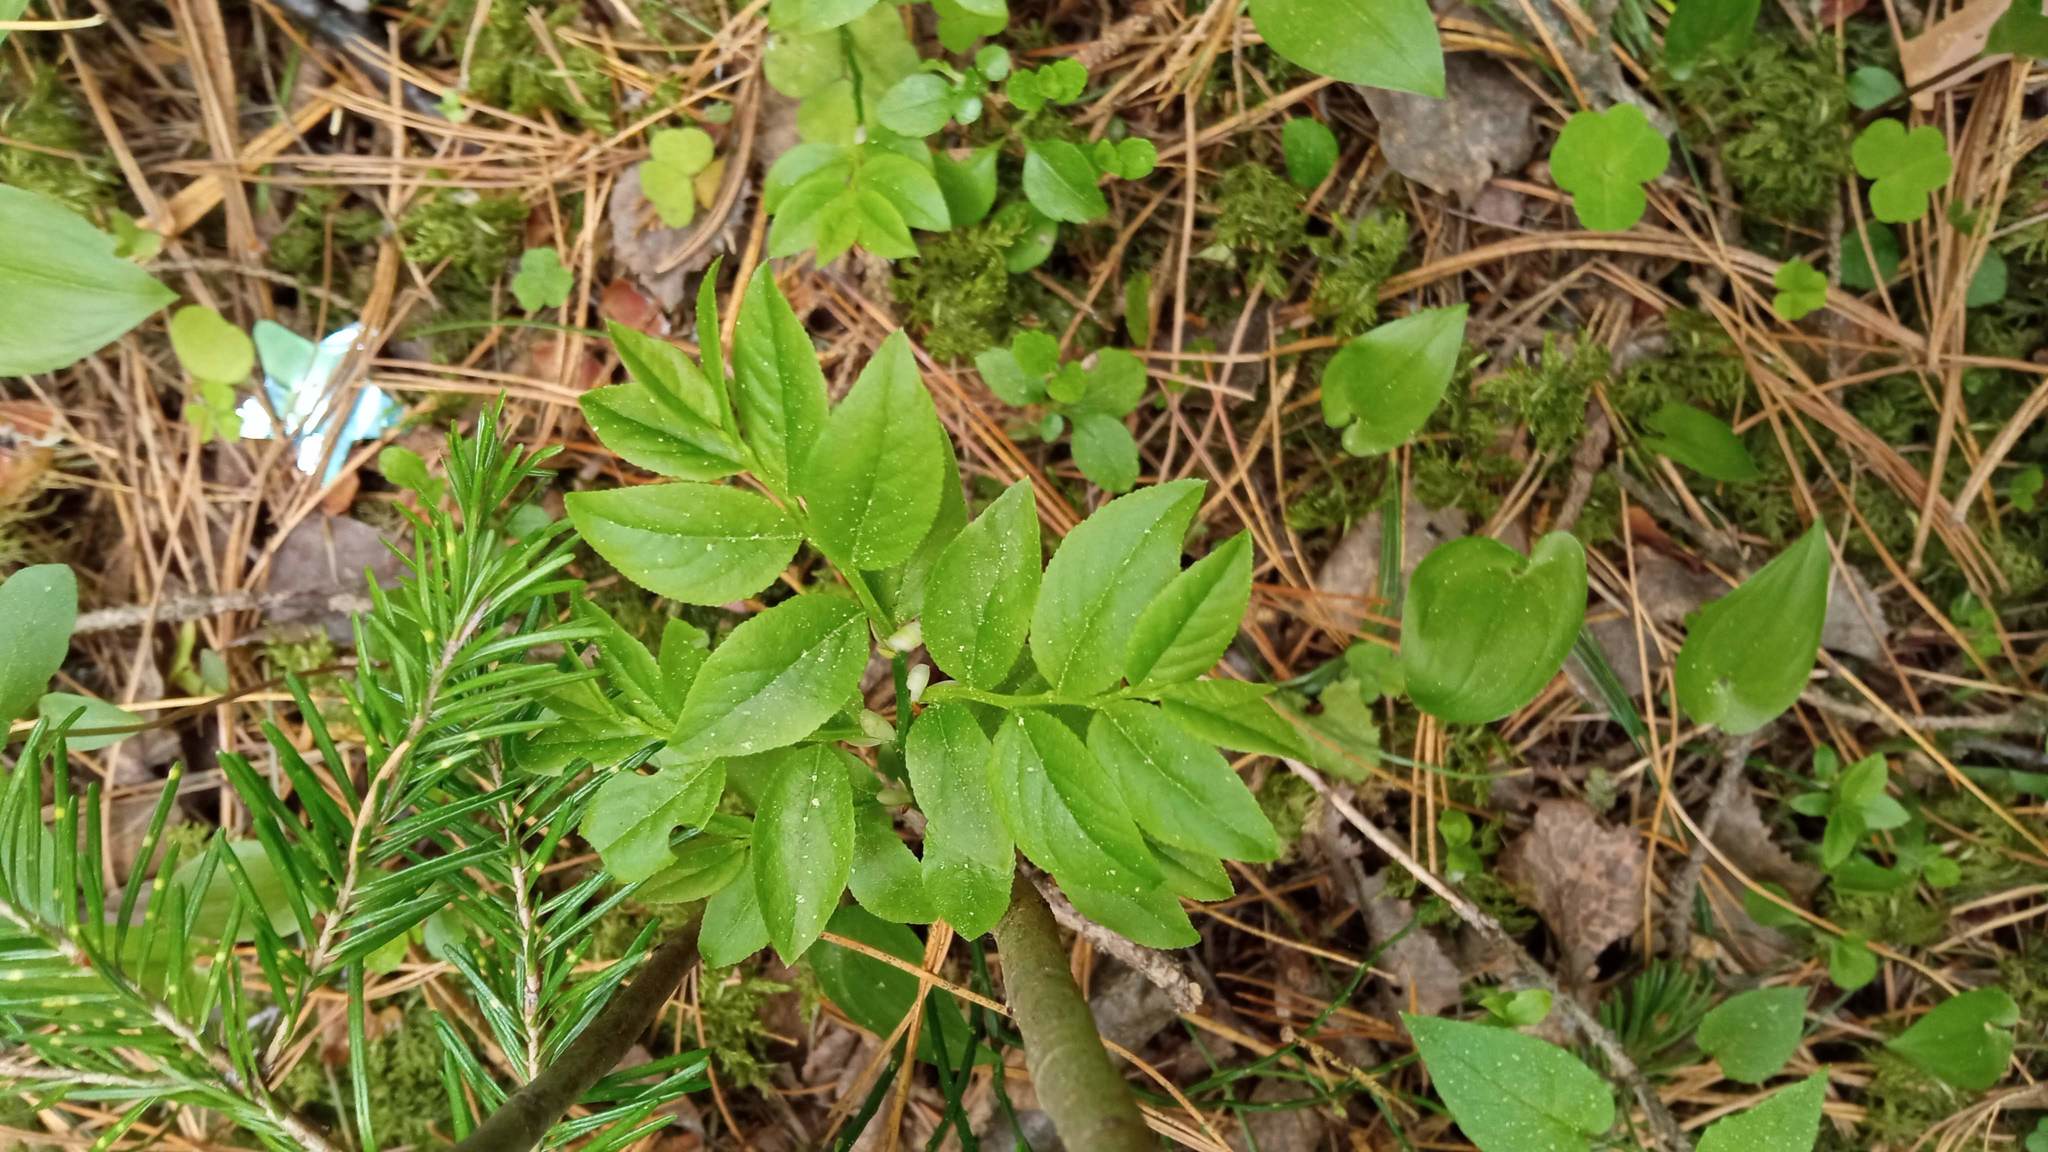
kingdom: Plantae
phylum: Tracheophyta
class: Magnoliopsida
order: Ericales
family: Ericaceae
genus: Vaccinium
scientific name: Vaccinium myrtillus
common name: Bilberry
